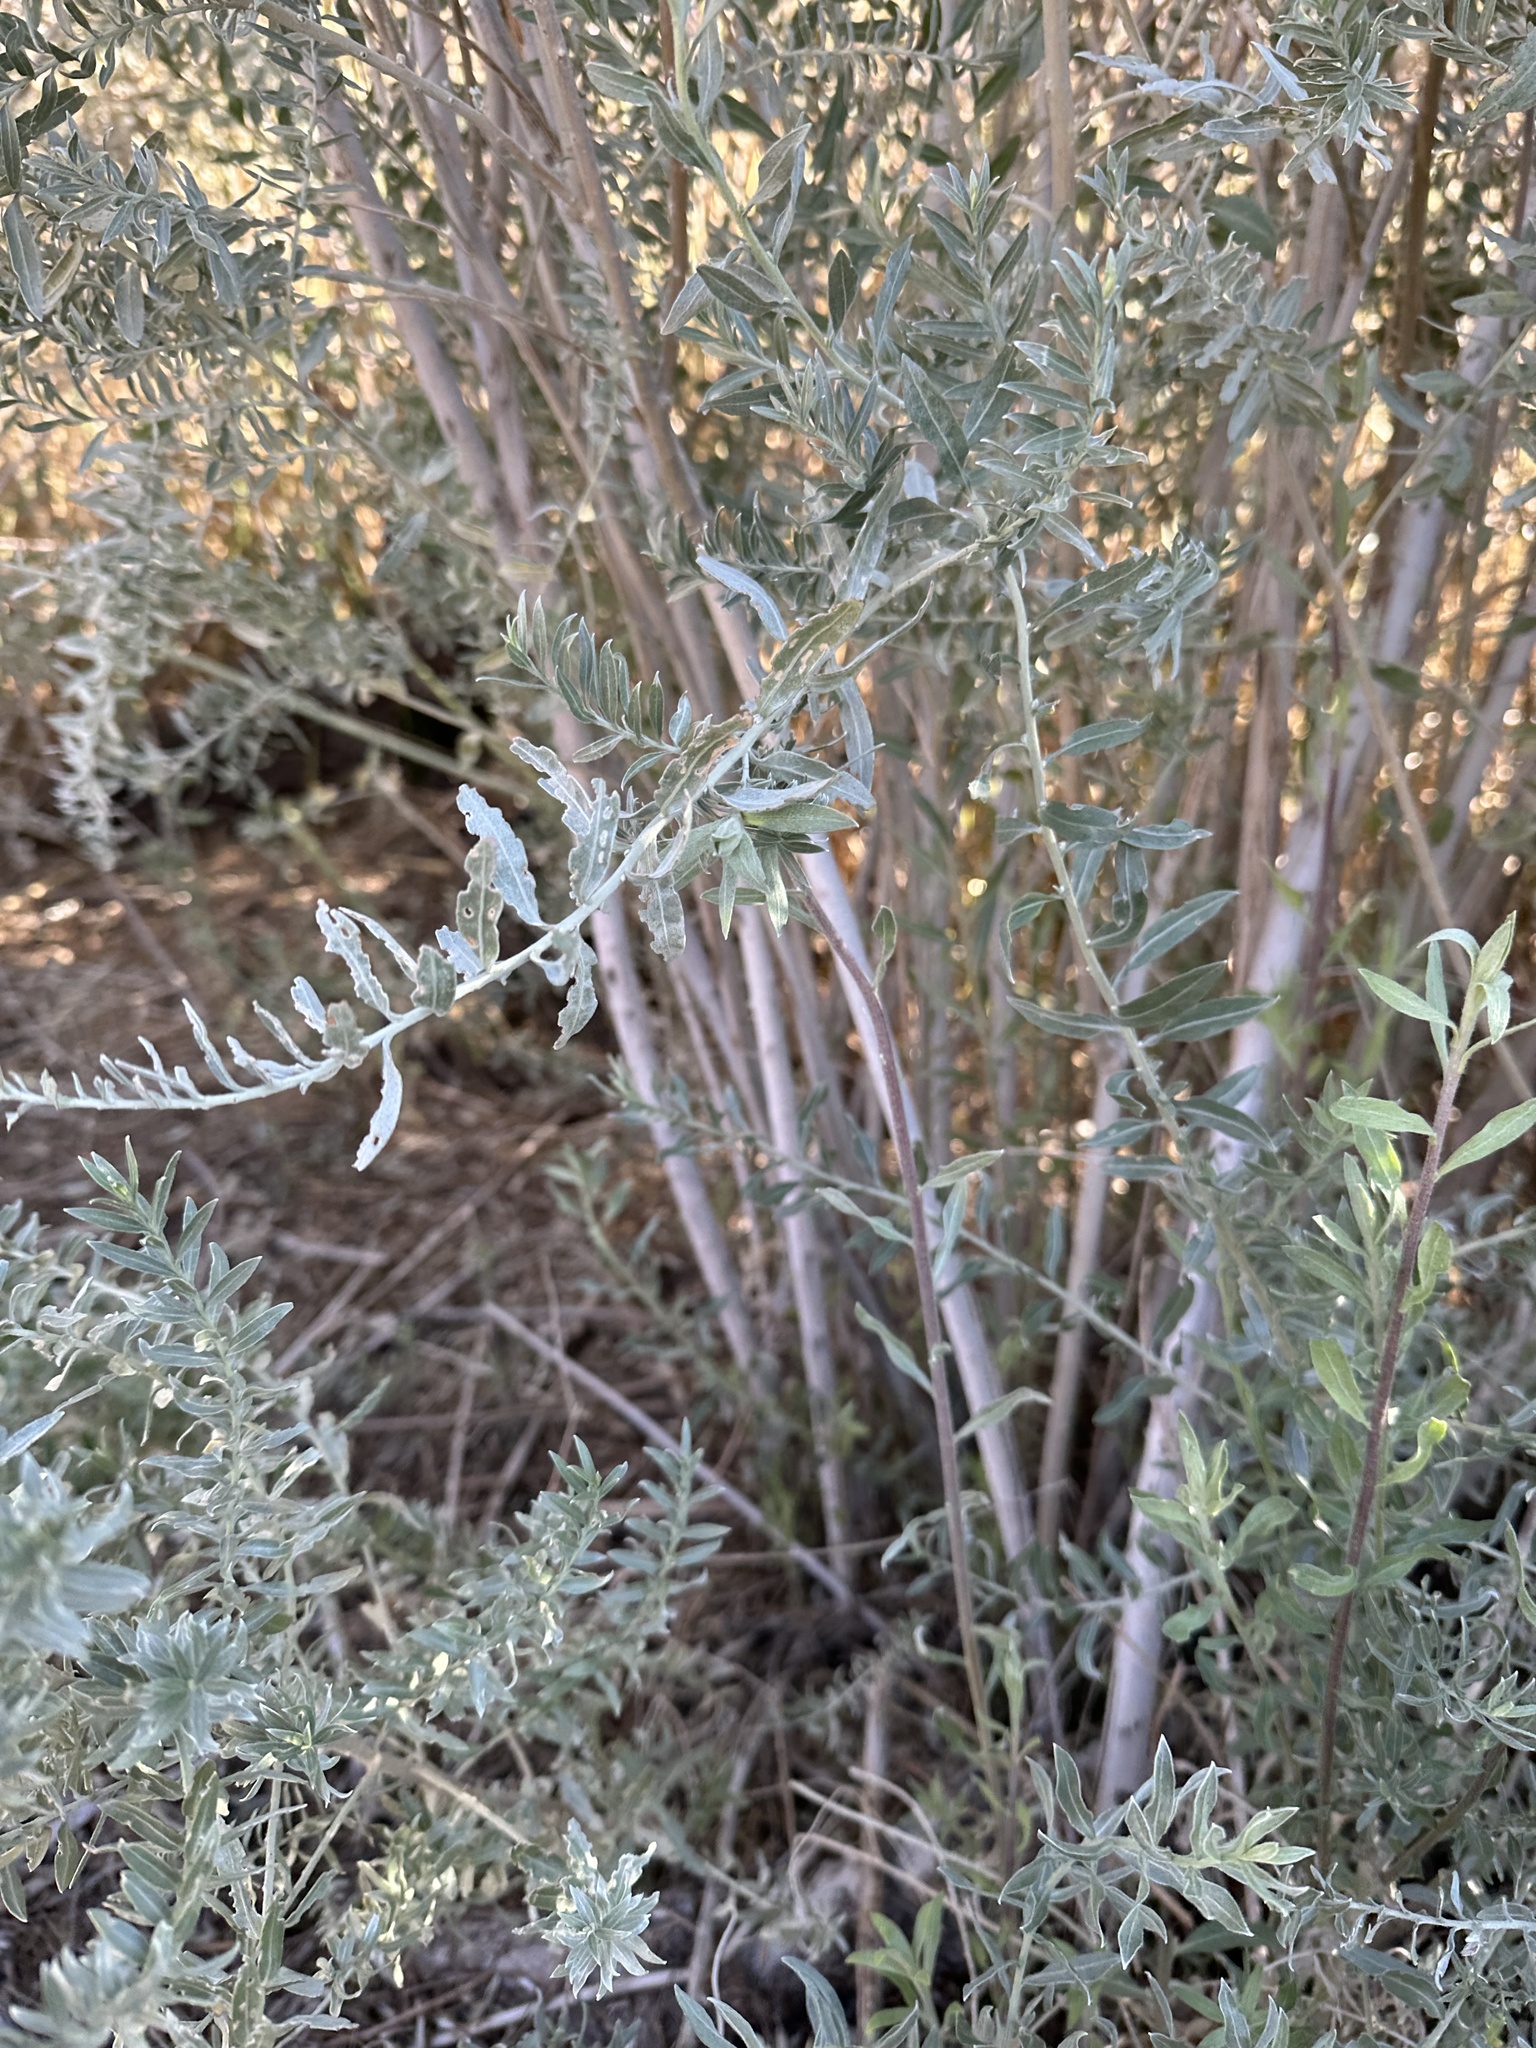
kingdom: Plantae
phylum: Tracheophyta
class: Magnoliopsida
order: Asterales
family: Asteraceae
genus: Pluchea
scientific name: Pluchea sericea
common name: Arrow-weed
